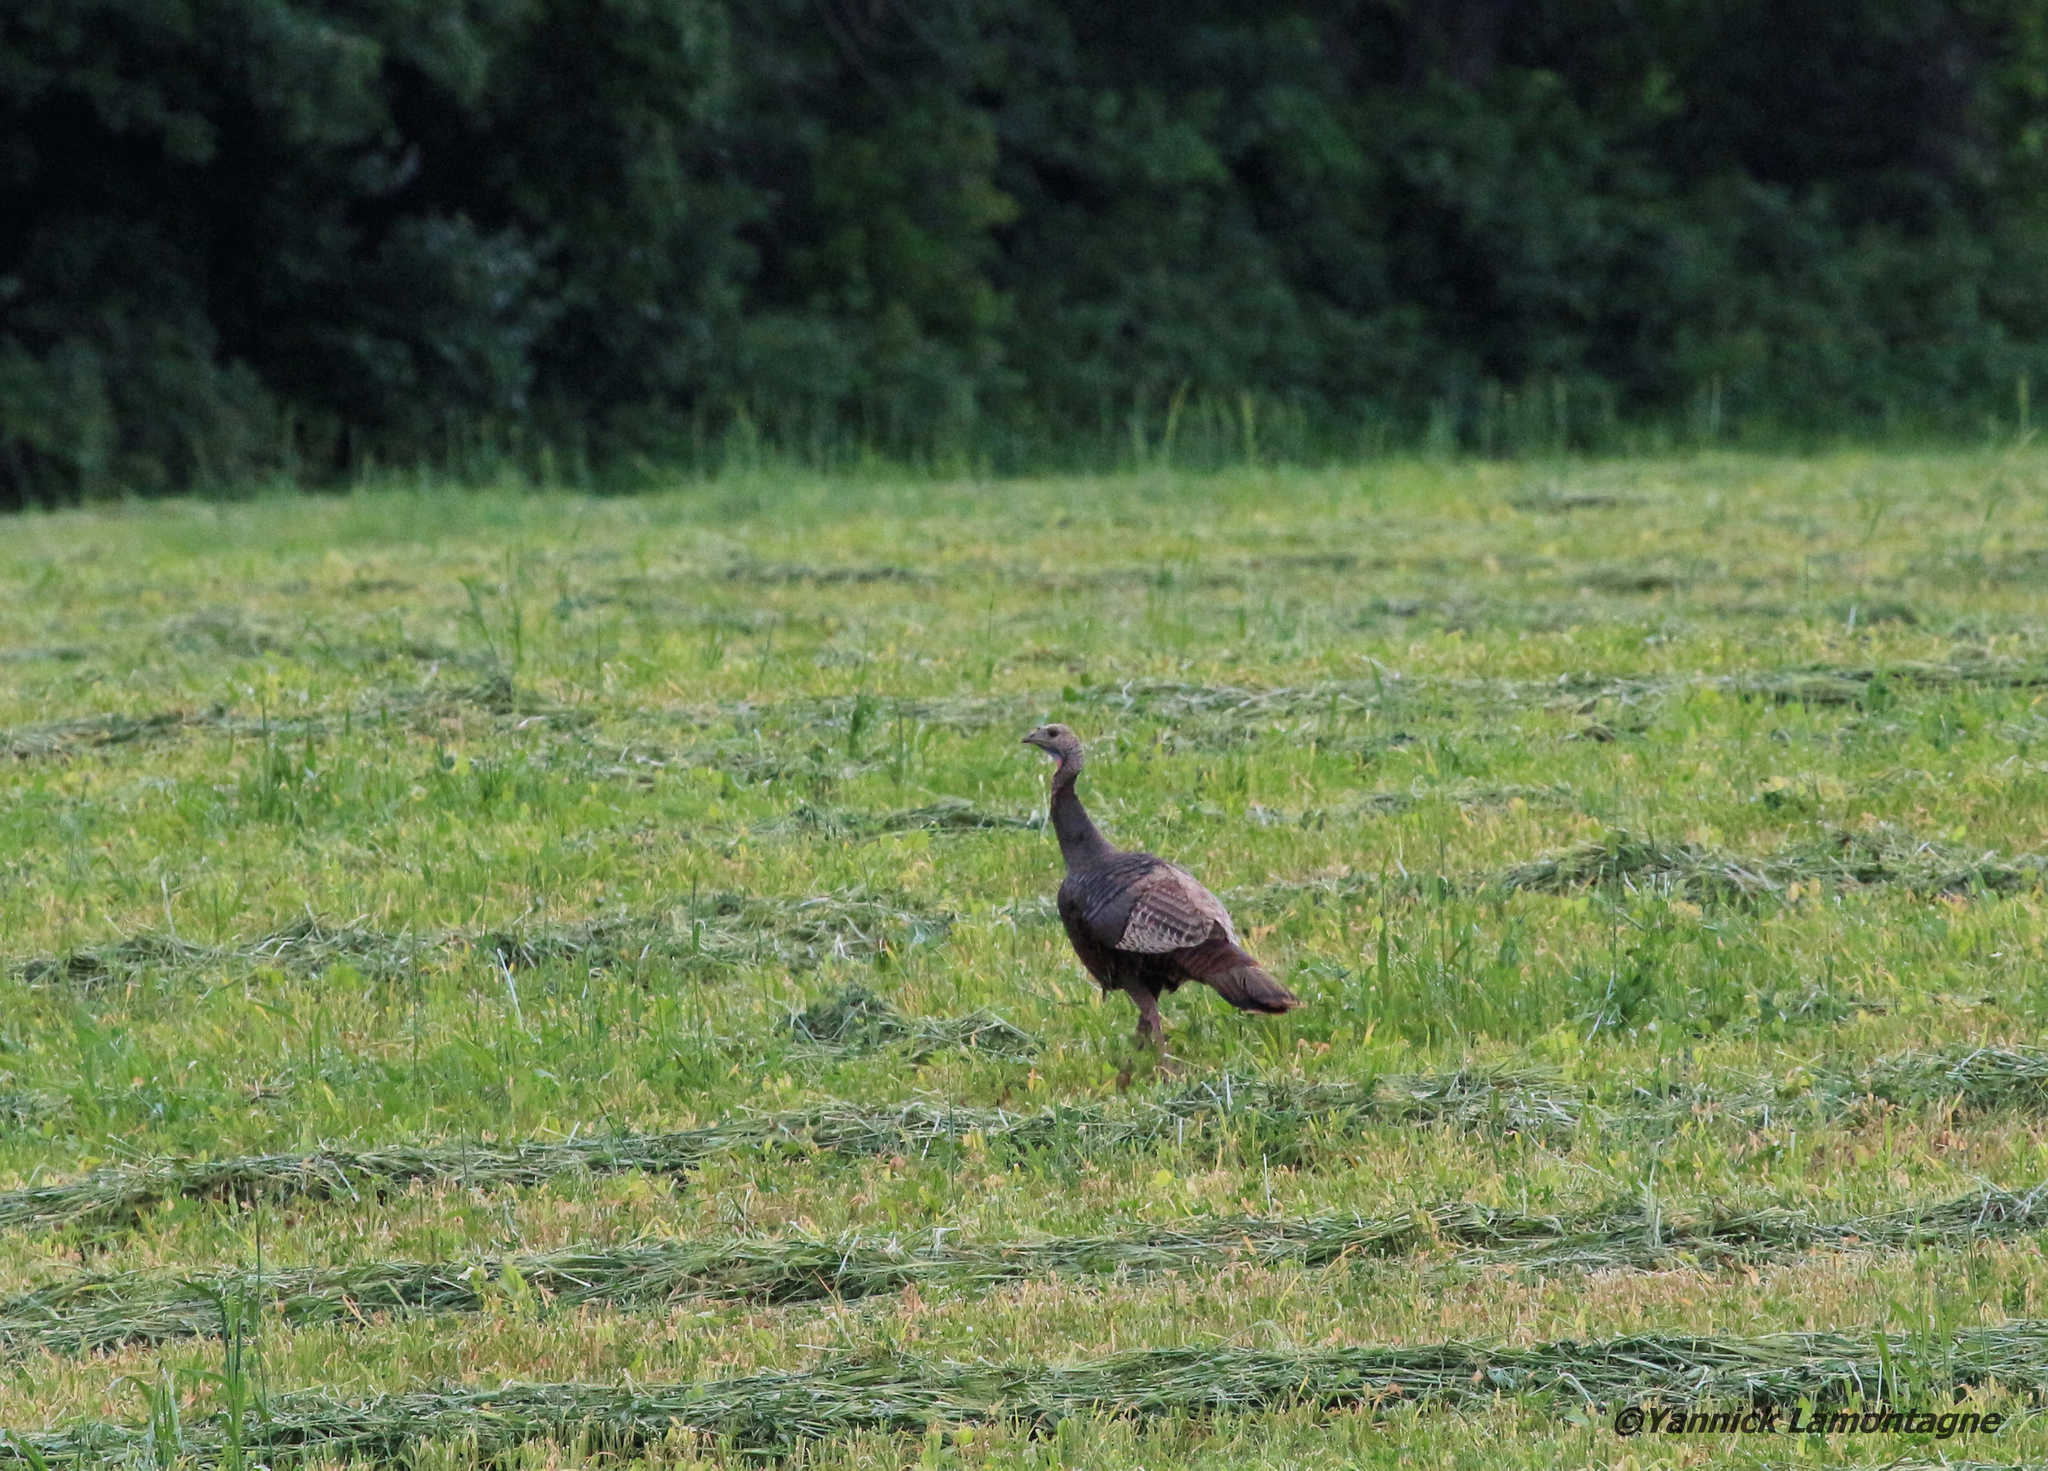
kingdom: Animalia
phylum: Chordata
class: Aves
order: Galliformes
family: Phasianidae
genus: Meleagris
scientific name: Meleagris gallopavo
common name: Wild turkey
